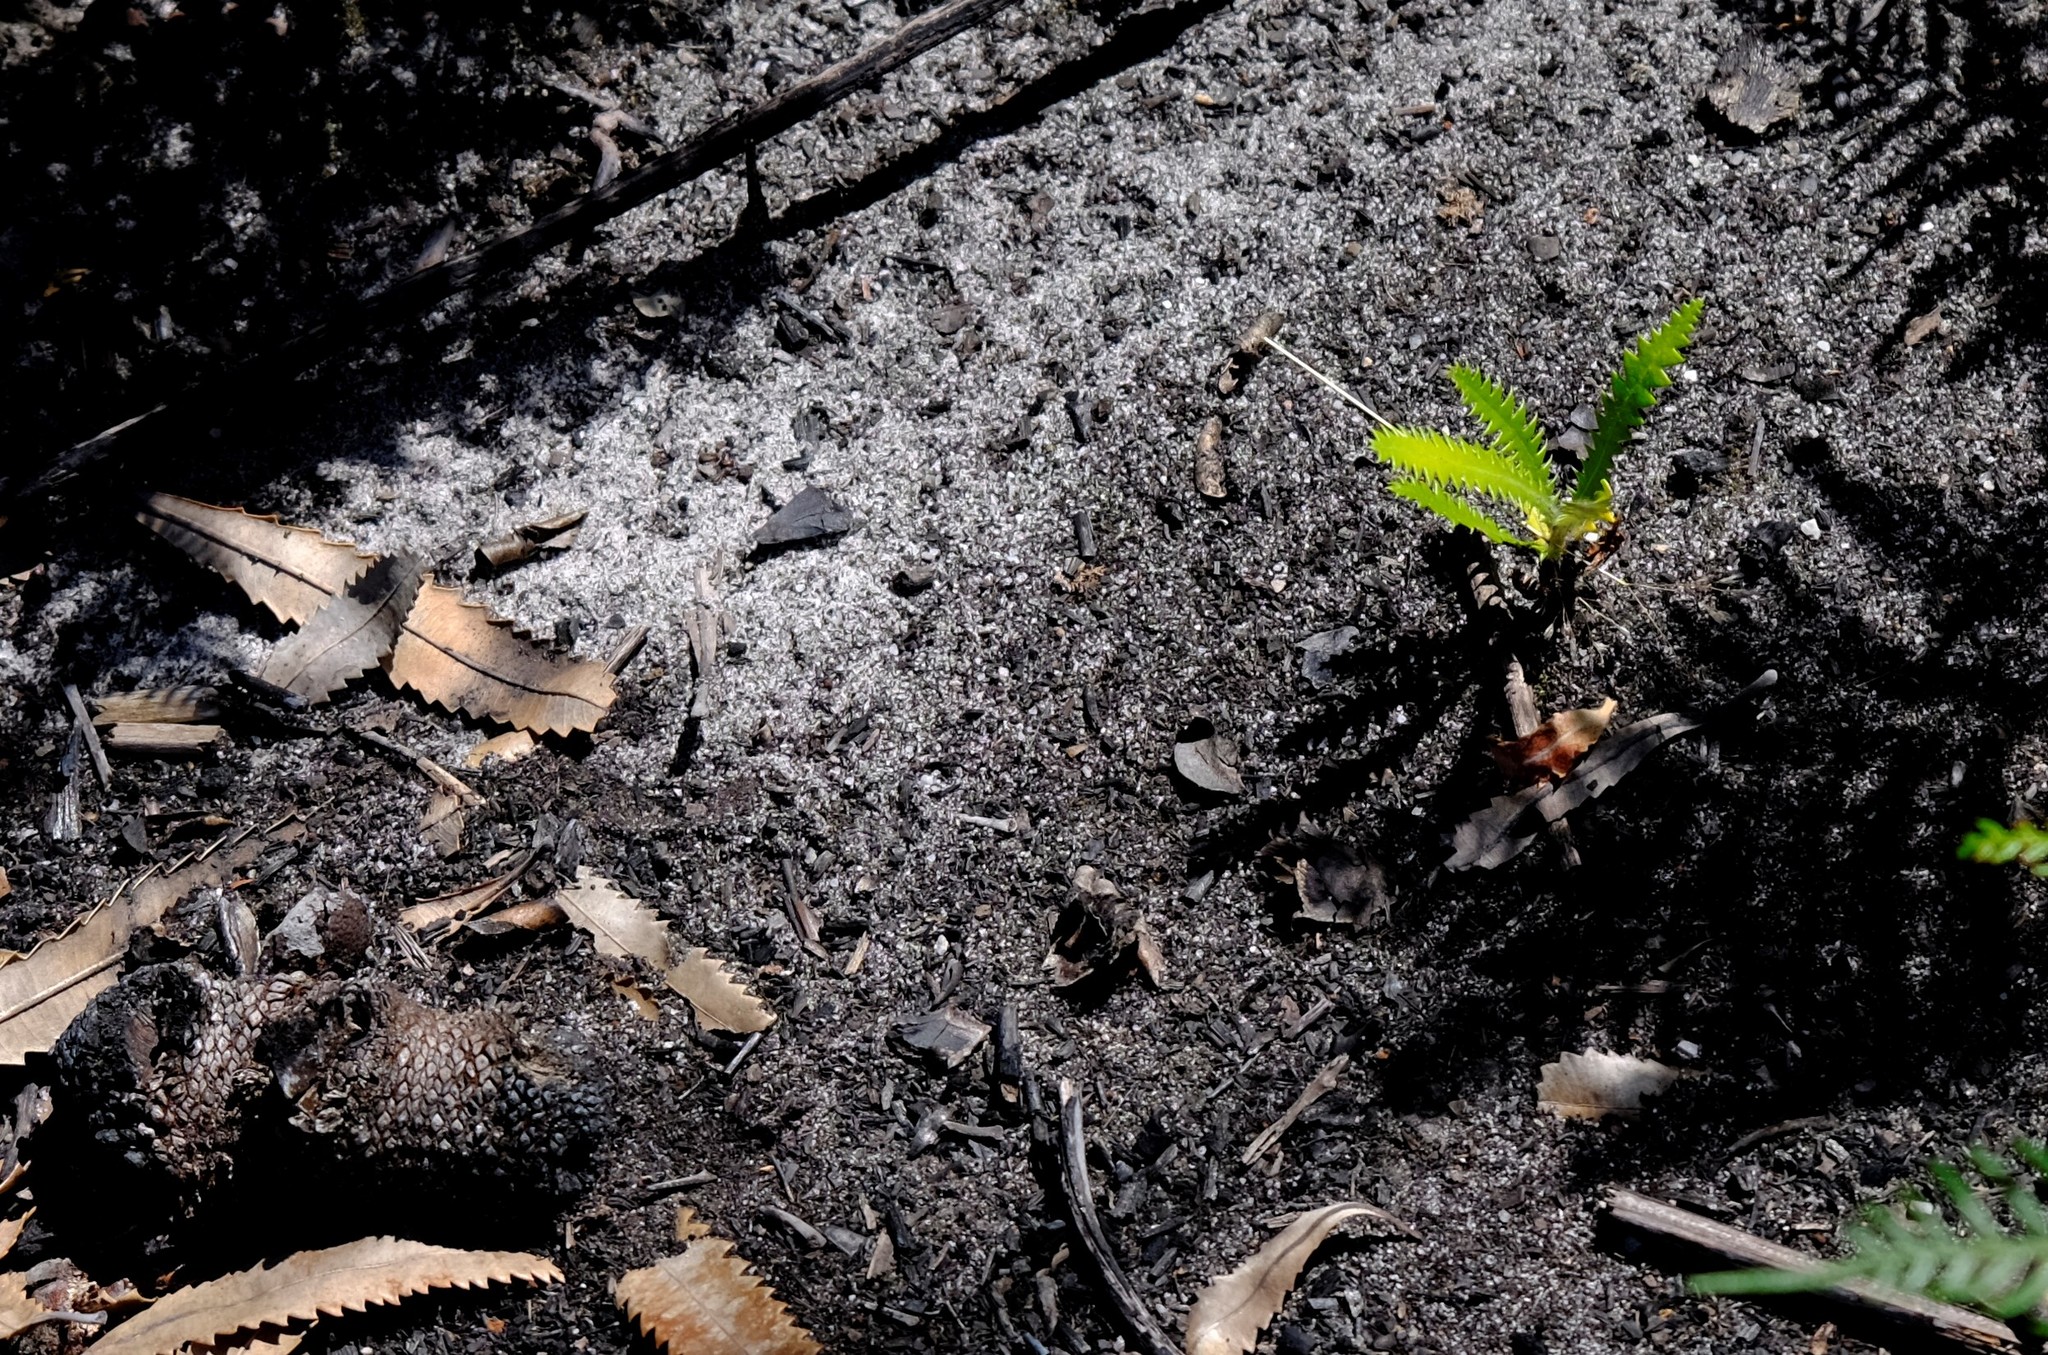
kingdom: Plantae
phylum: Tracheophyta
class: Magnoliopsida
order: Proteales
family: Proteaceae
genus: Banksia
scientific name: Banksia serrata
